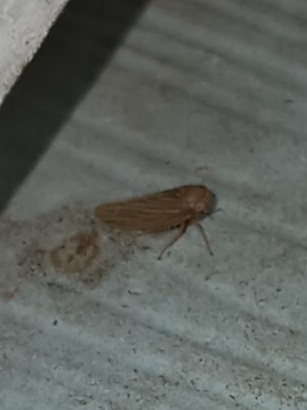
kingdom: Animalia
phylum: Arthropoda
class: Insecta
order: Hemiptera
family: Cicadellidae
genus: Agallia
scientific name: Agallia constricta
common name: The constricted leafhopper
